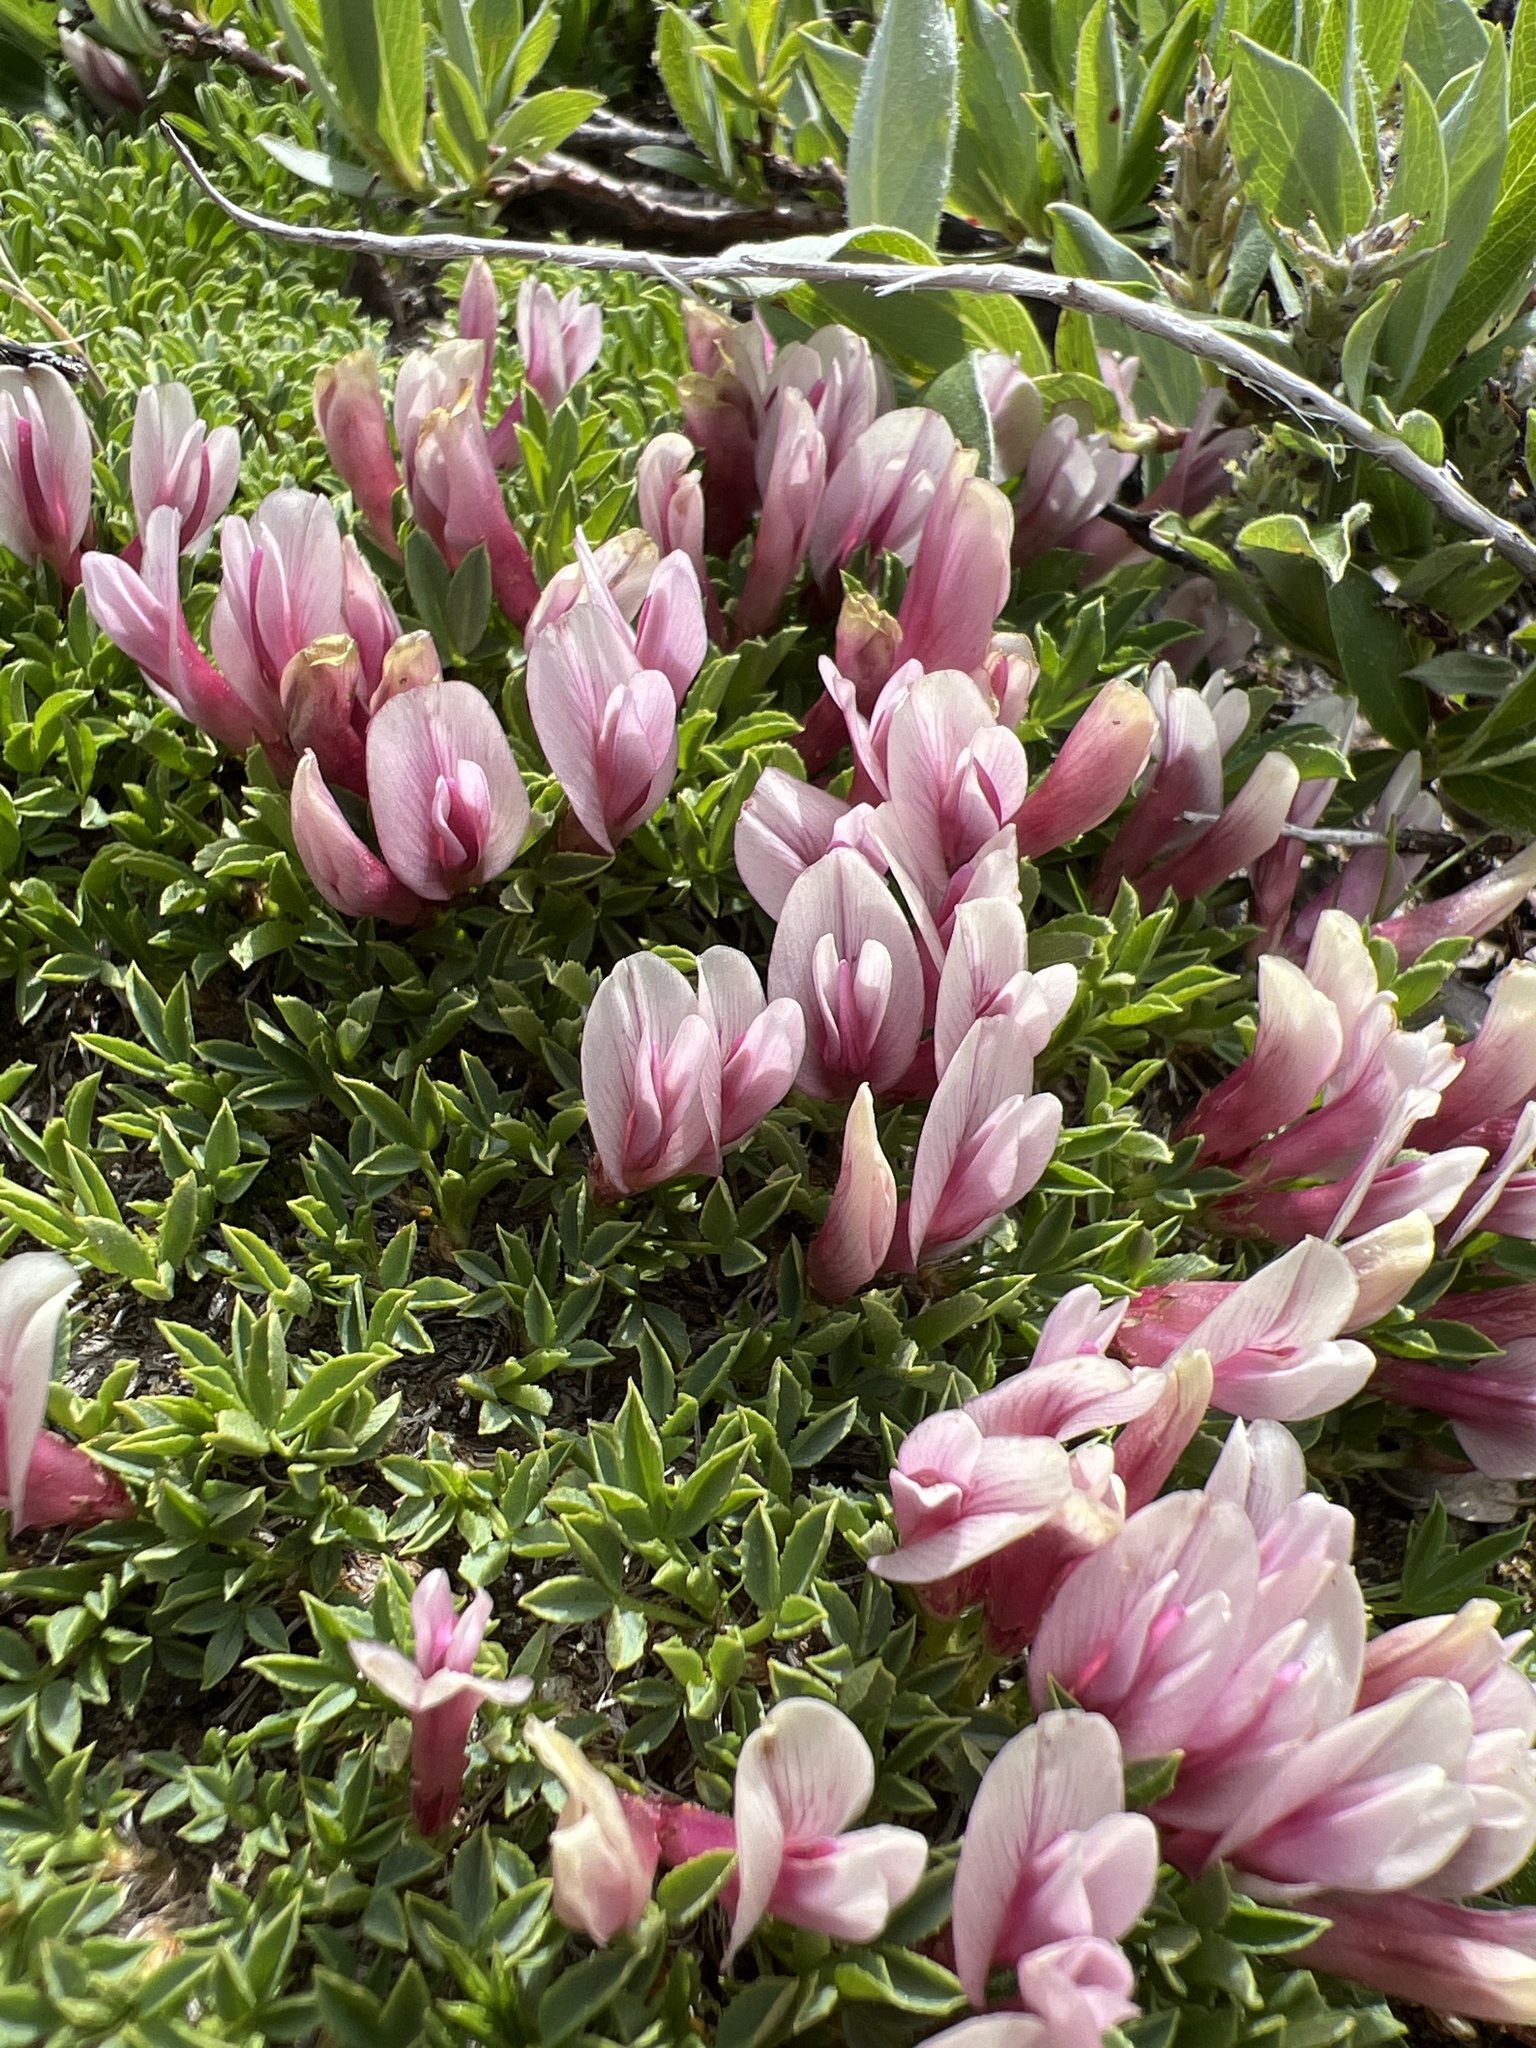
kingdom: Plantae
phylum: Tracheophyta
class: Magnoliopsida
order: Fabales
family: Fabaceae
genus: Trifolium
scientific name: Trifolium nanum
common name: Tundra clover
